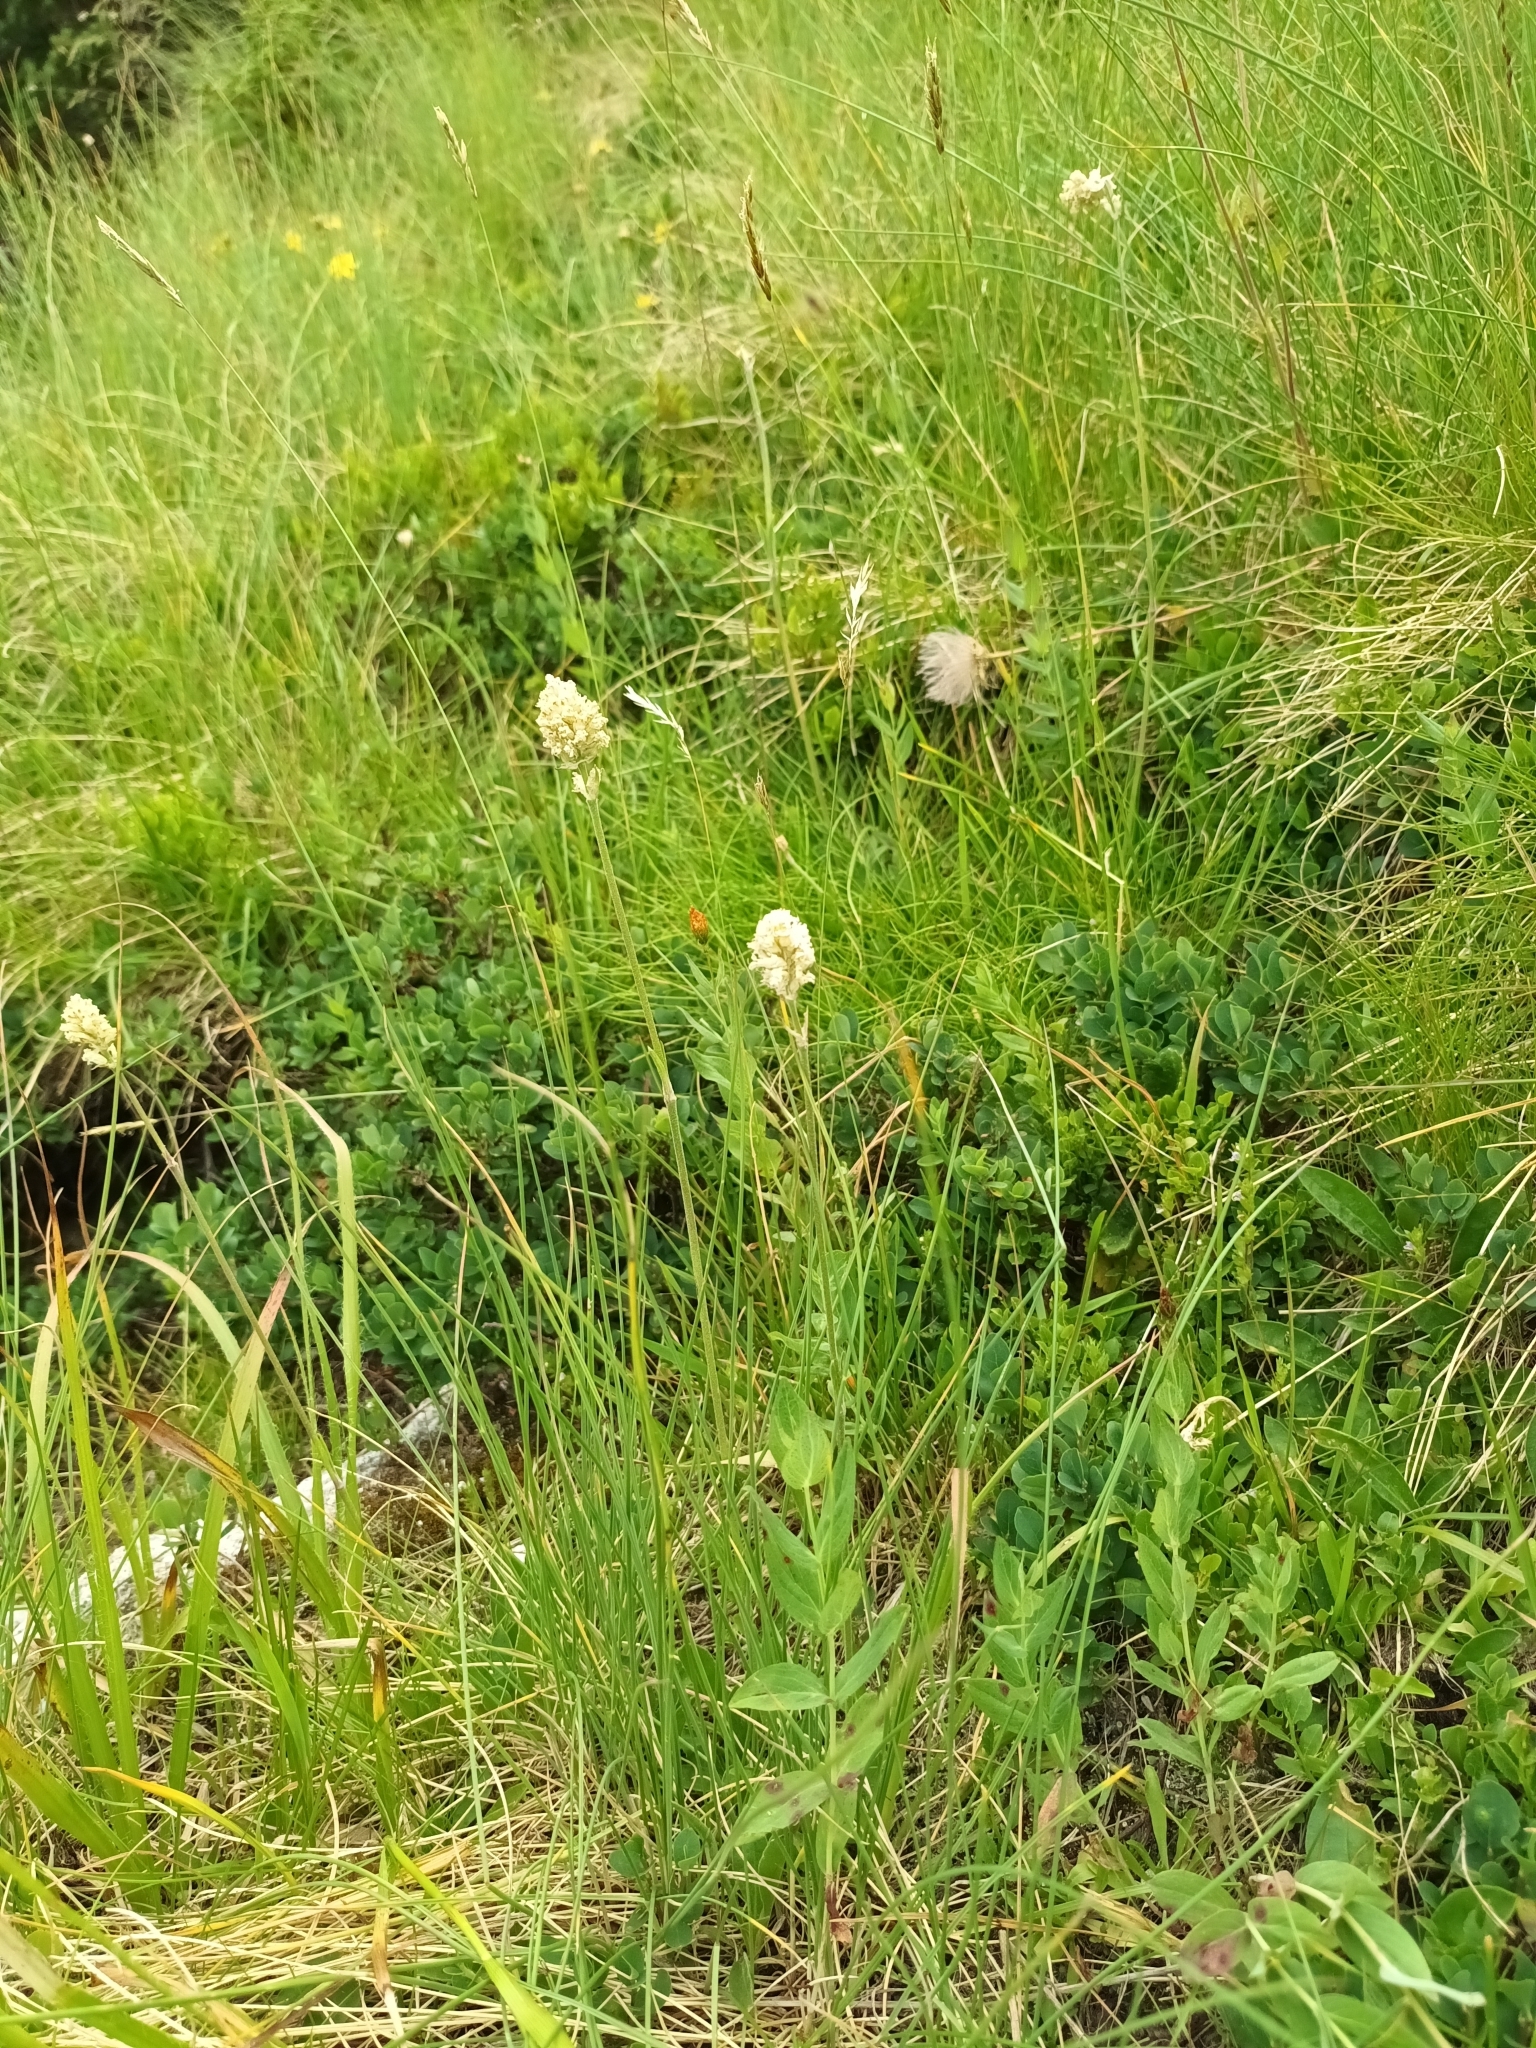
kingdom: Plantae
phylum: Tracheophyta
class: Magnoliopsida
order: Caryophyllales
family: Caryophyllaceae
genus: Silene
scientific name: Silene roemeri
